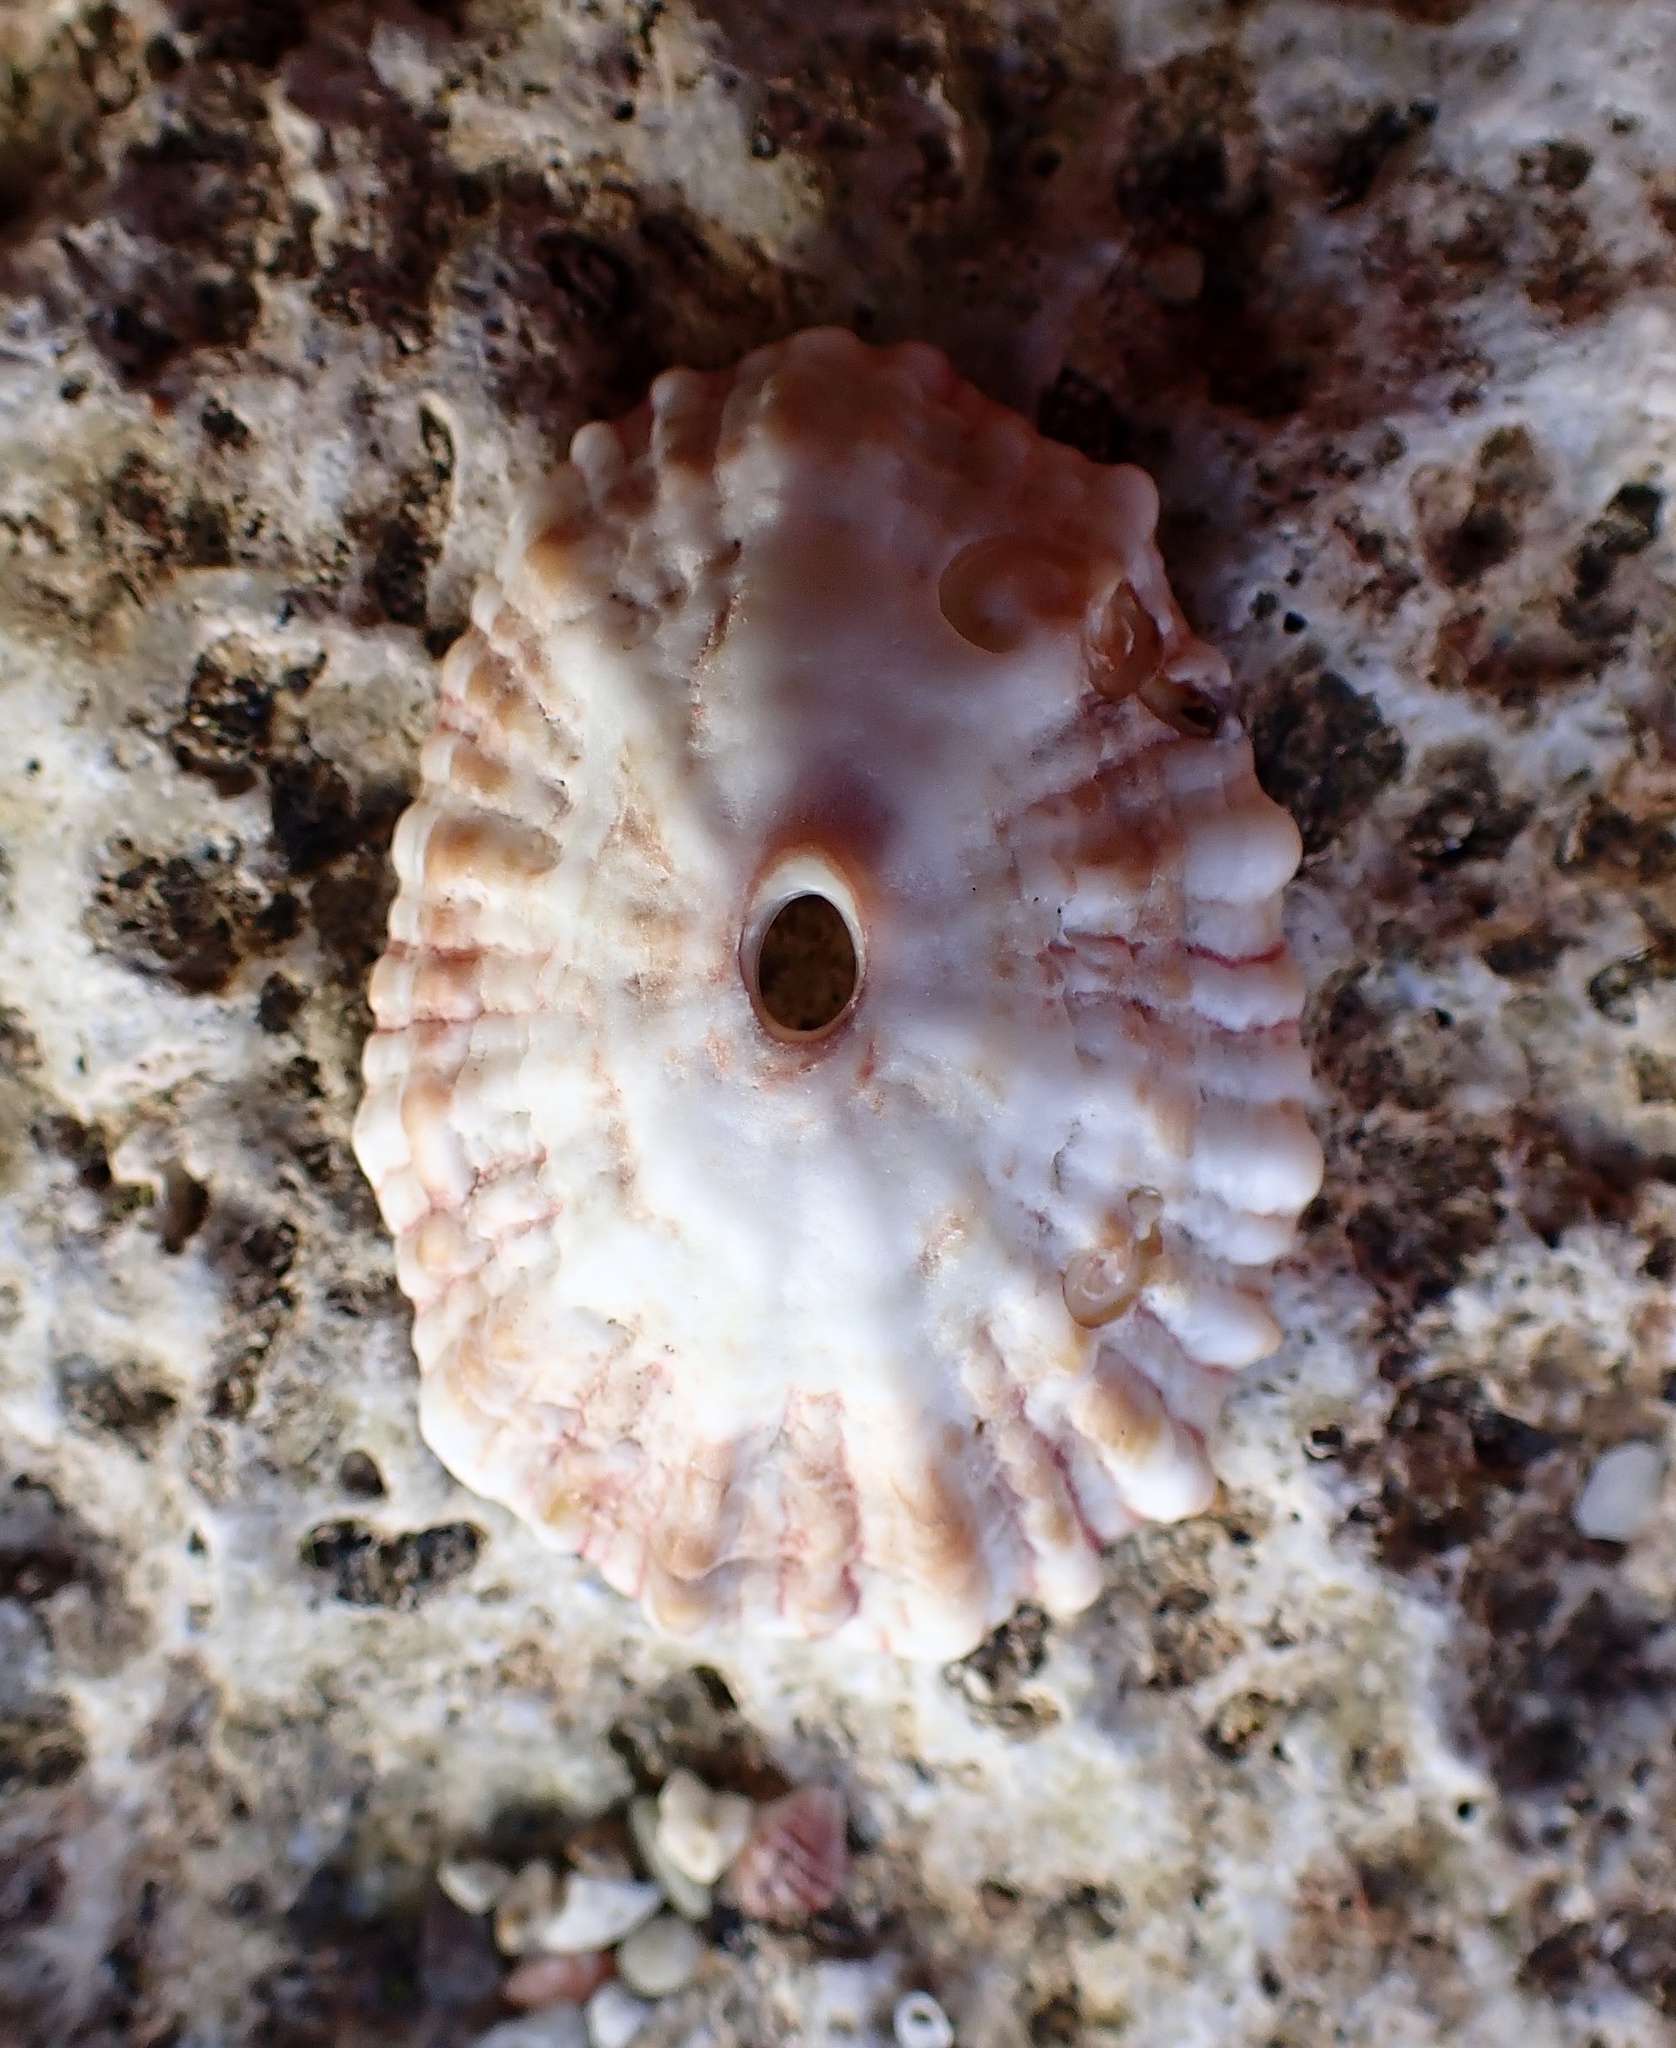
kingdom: Animalia
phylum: Mollusca
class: Gastropoda
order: Lepetellida
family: Fissurellidae
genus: Fissurella
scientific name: Fissurella barbadensis
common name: Barbados keyhole limpet
